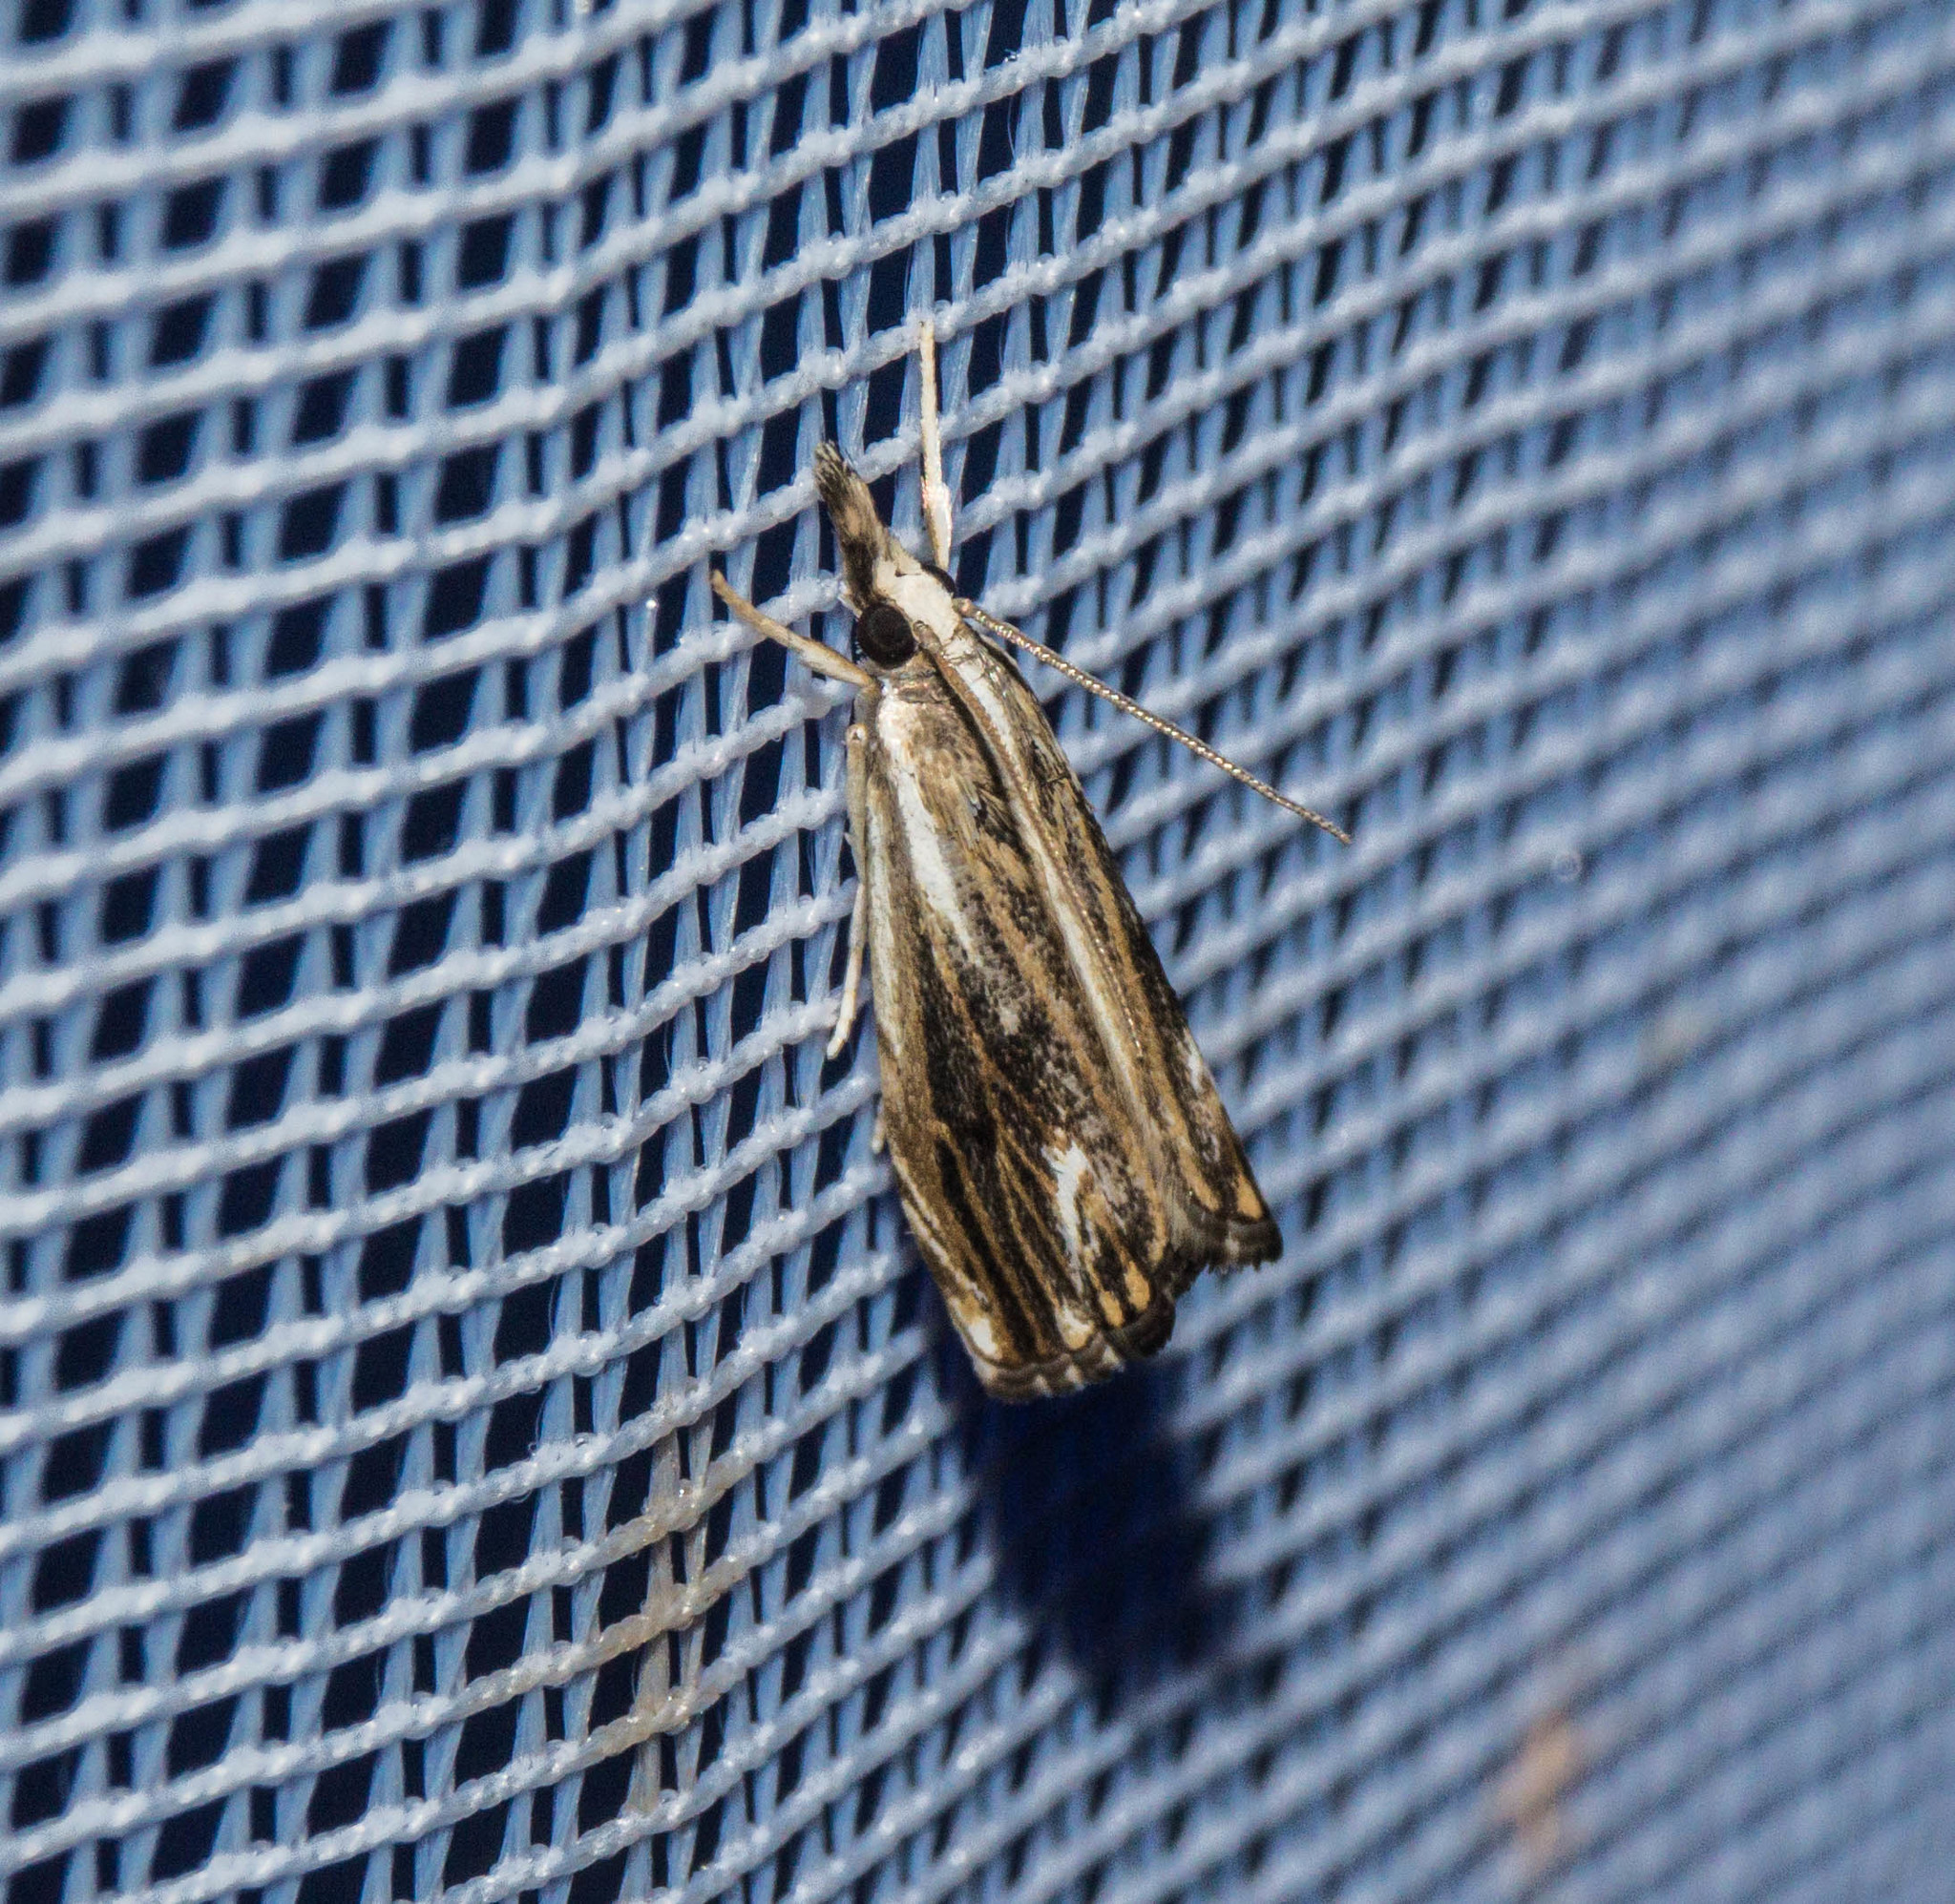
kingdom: Animalia
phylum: Arthropoda
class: Insecta
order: Lepidoptera
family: Crambidae
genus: Catoptria
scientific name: Catoptria verellus
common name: Marbled grass-veneer
